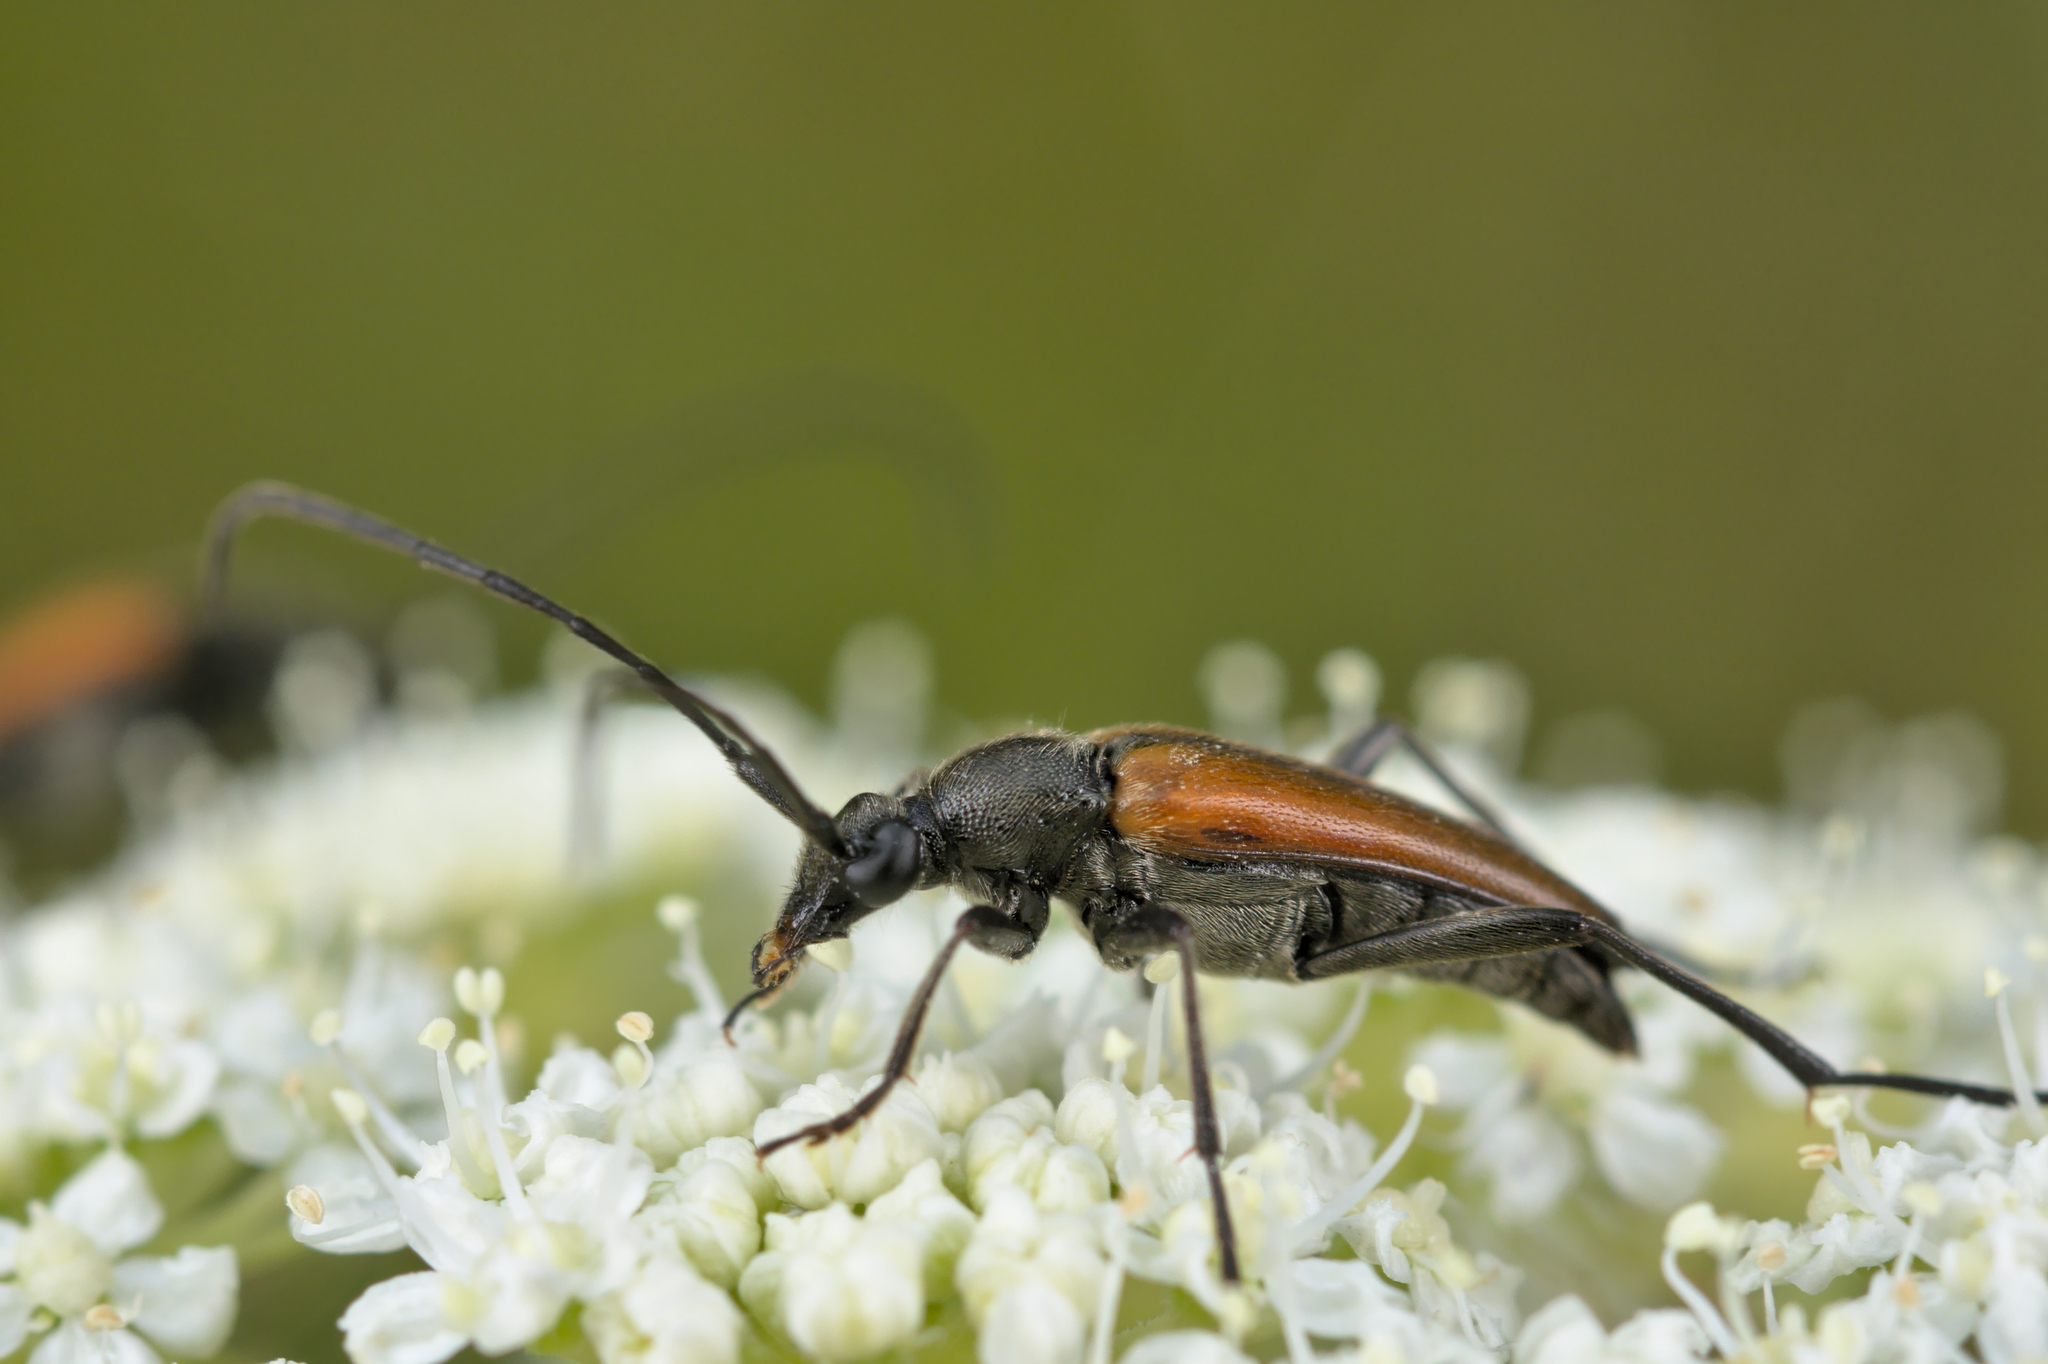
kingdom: Animalia
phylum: Arthropoda
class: Insecta
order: Coleoptera
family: Cerambycidae
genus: Stenurella
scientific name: Stenurella melanura
